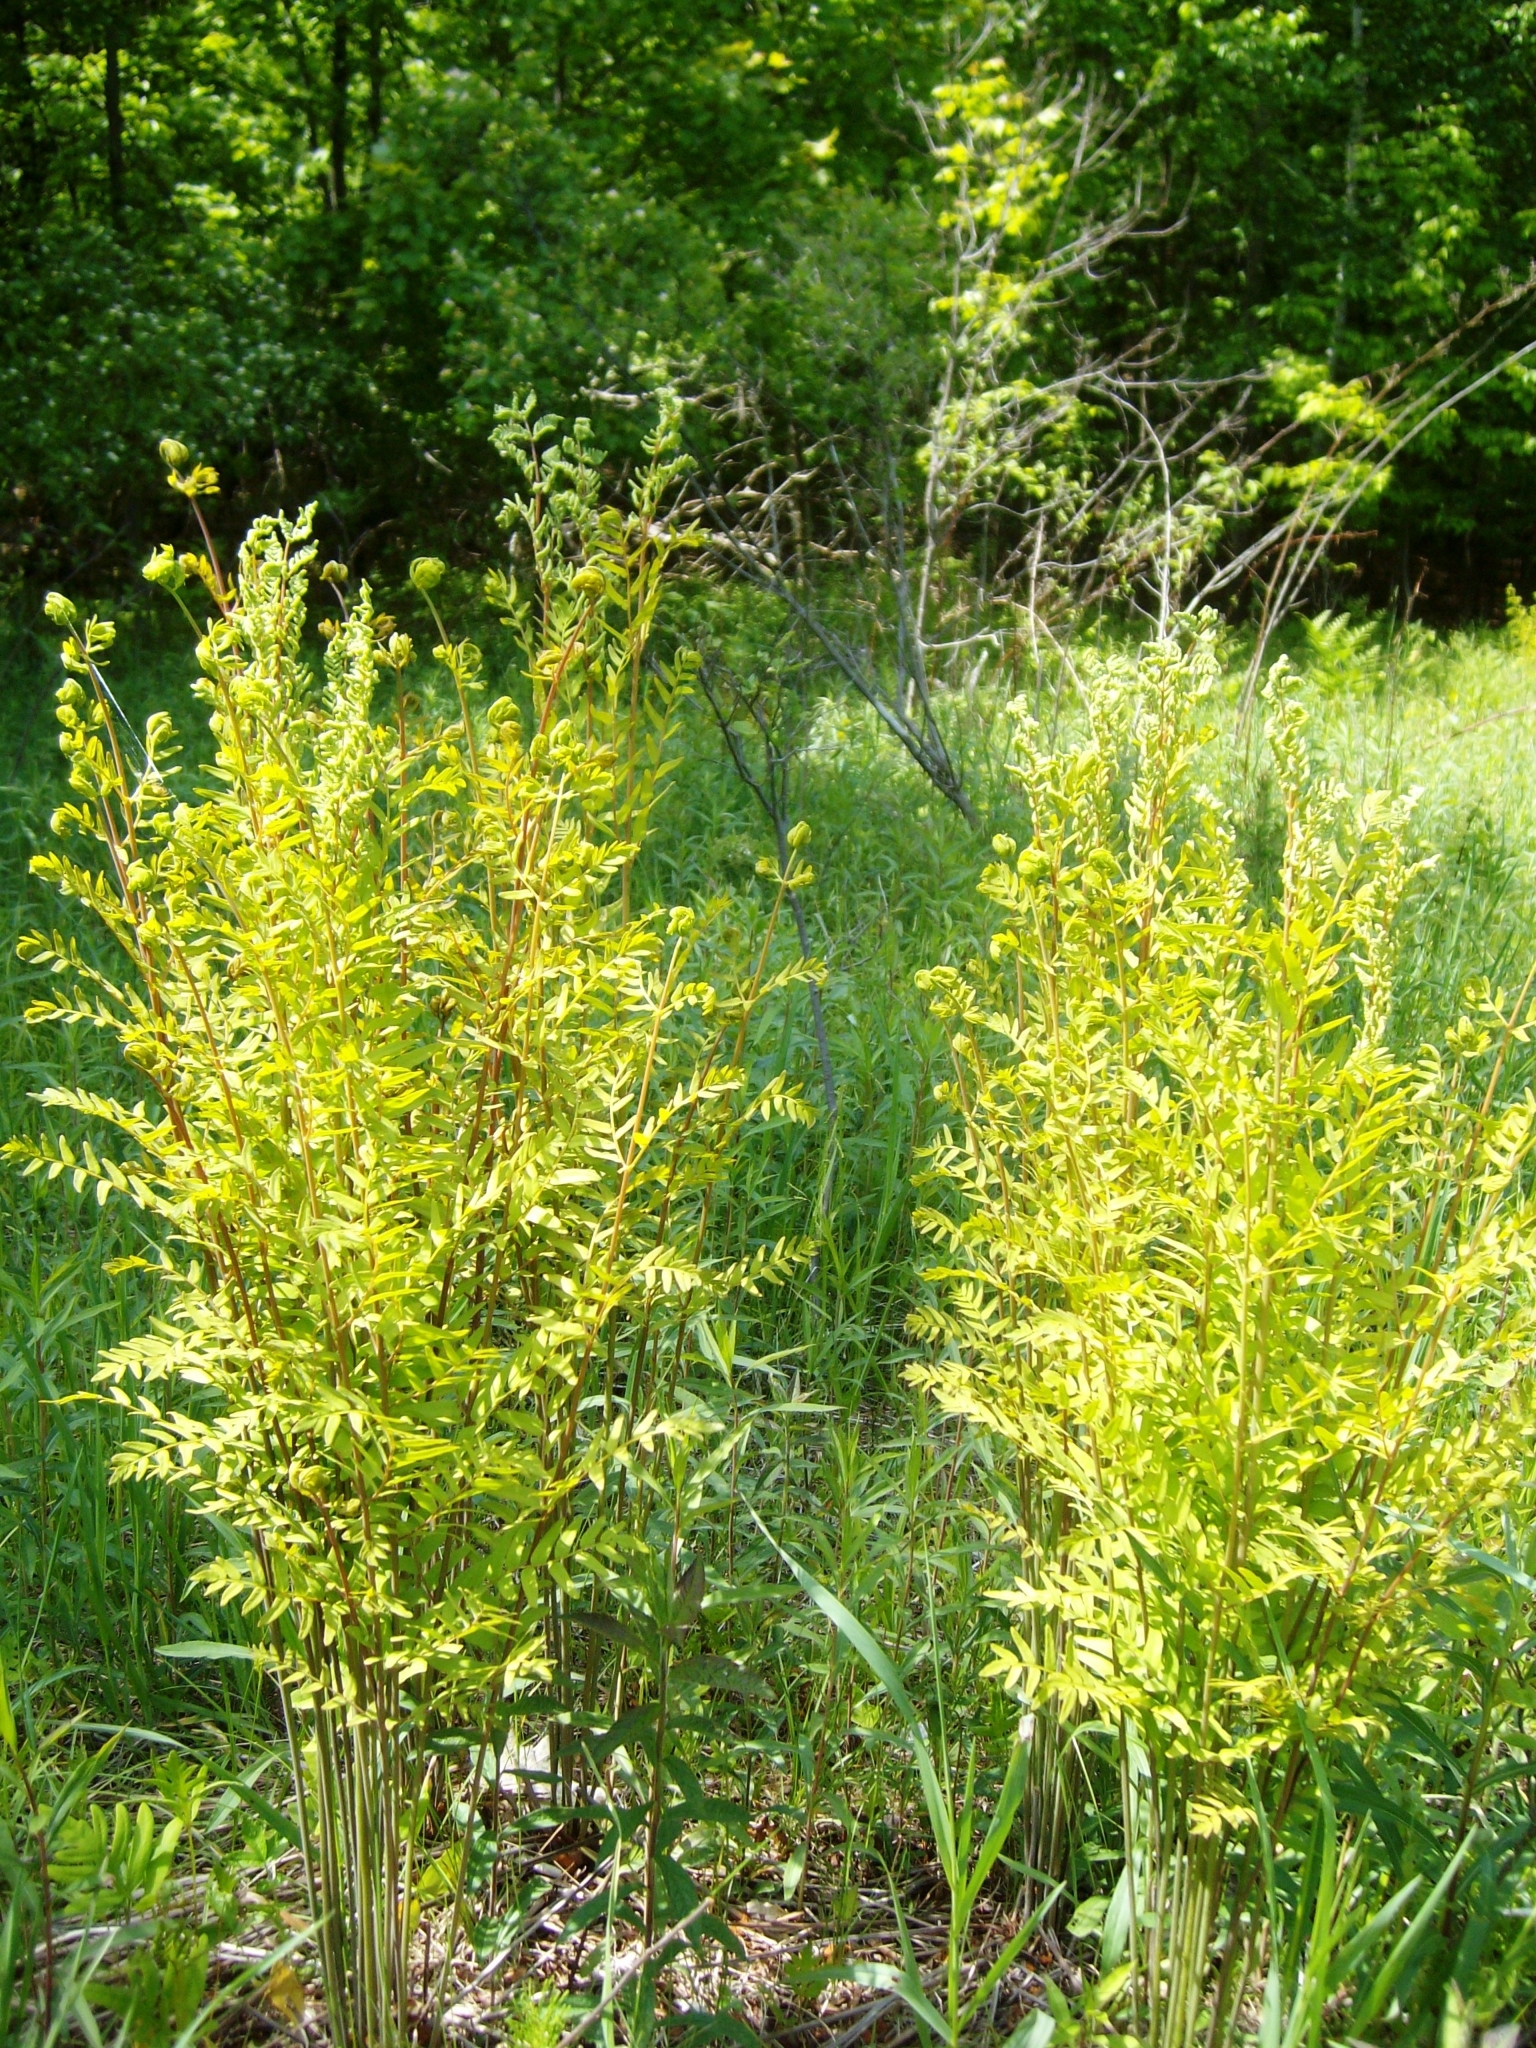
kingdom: Plantae
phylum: Tracheophyta
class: Polypodiopsida
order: Osmundales
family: Osmundaceae
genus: Osmunda
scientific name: Osmunda spectabilis
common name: American royal fern
